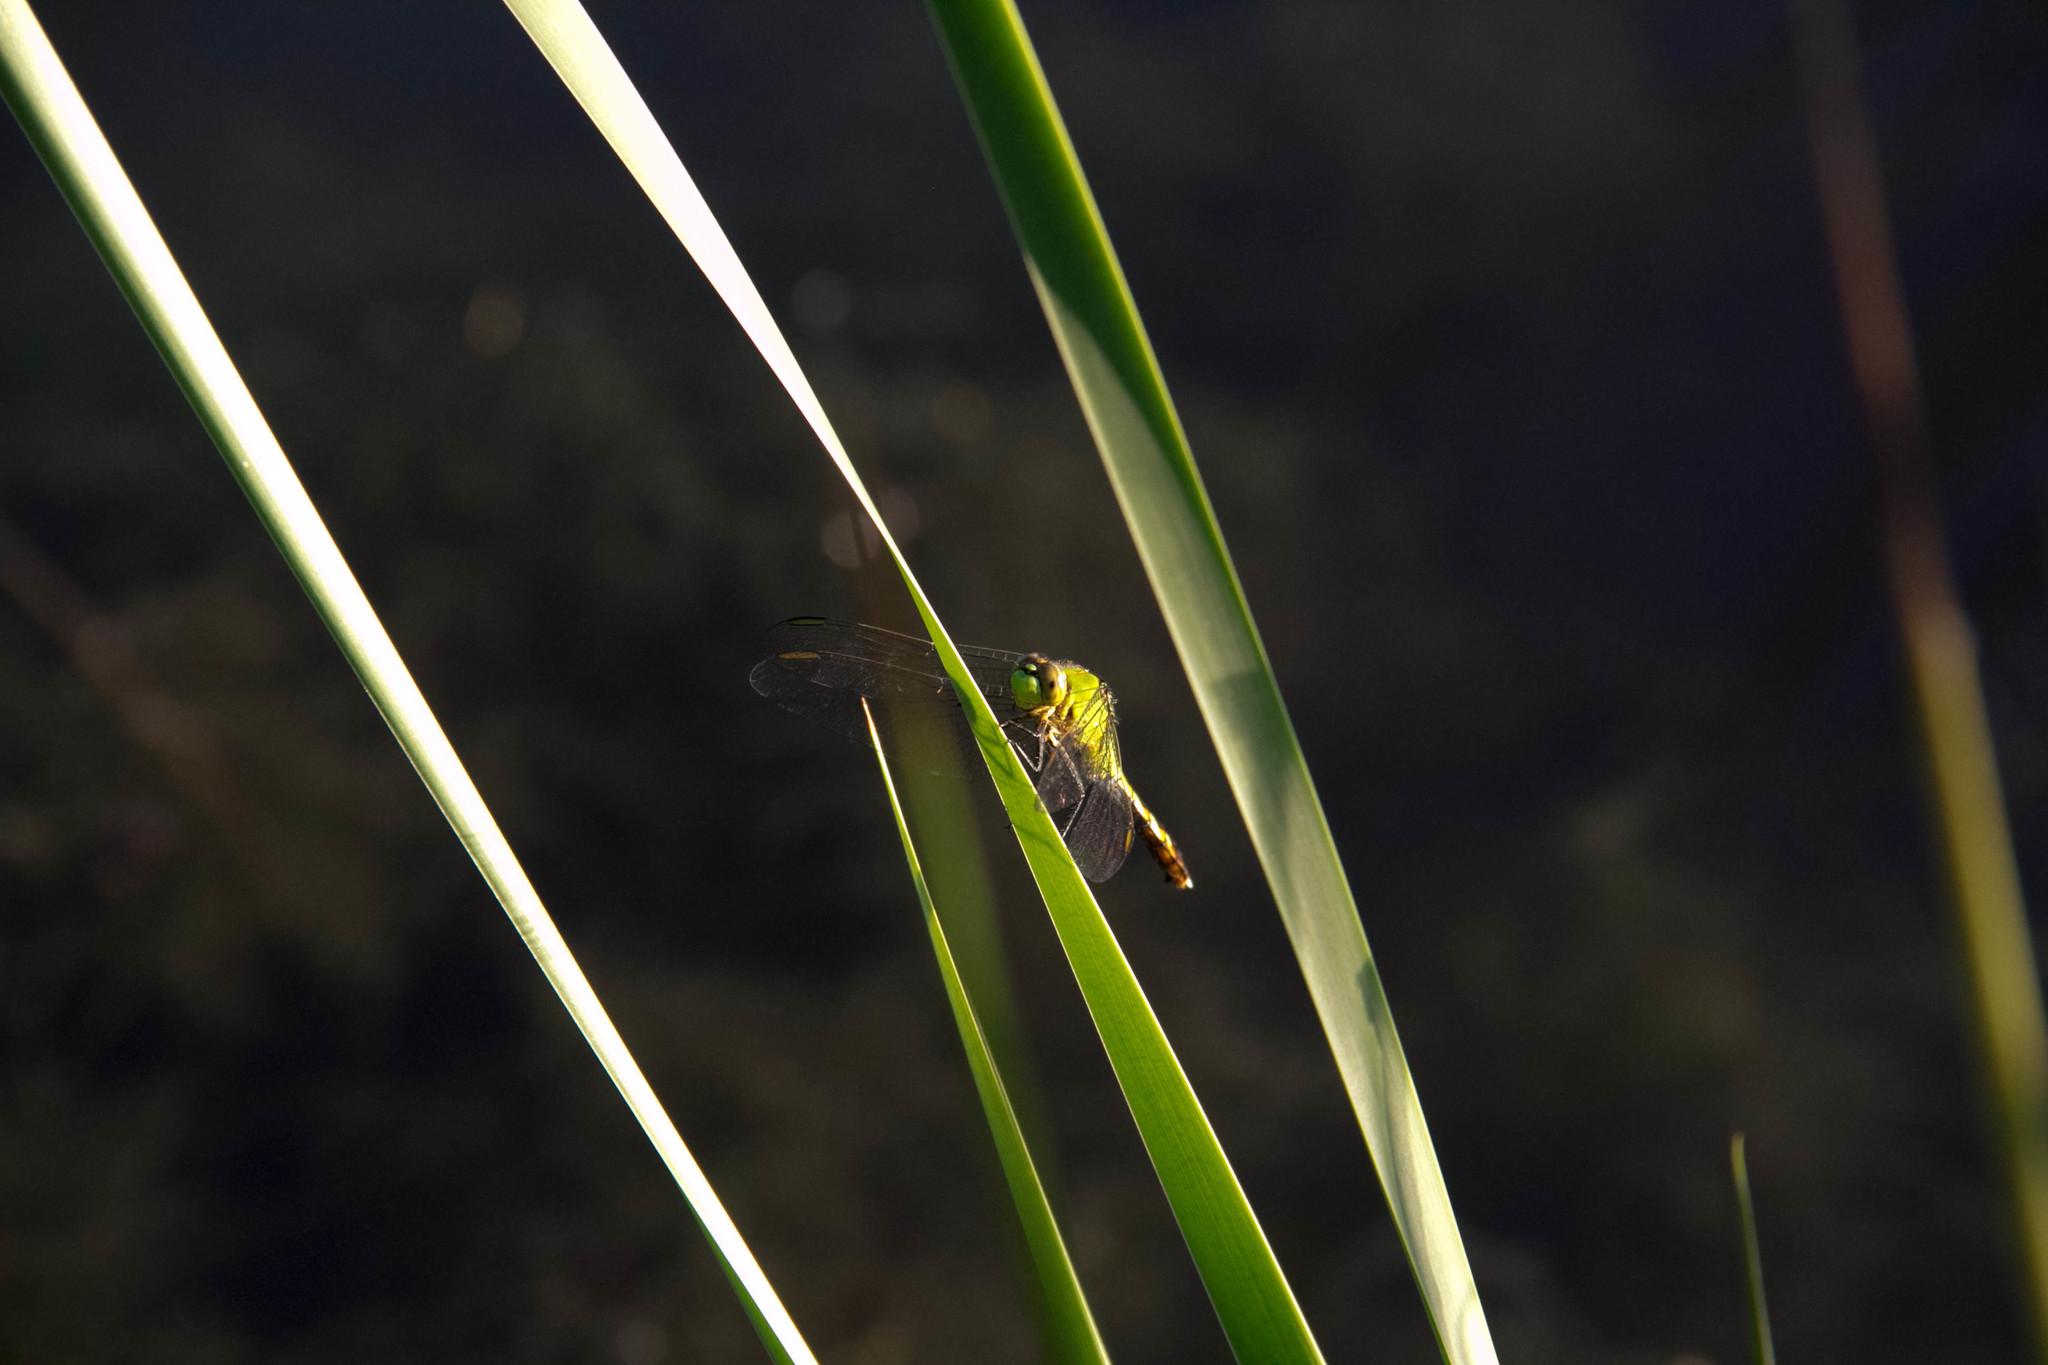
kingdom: Animalia
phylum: Arthropoda
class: Insecta
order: Odonata
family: Libellulidae
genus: Erythemis
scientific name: Erythemis simplicicollis
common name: Eastern pondhawk
